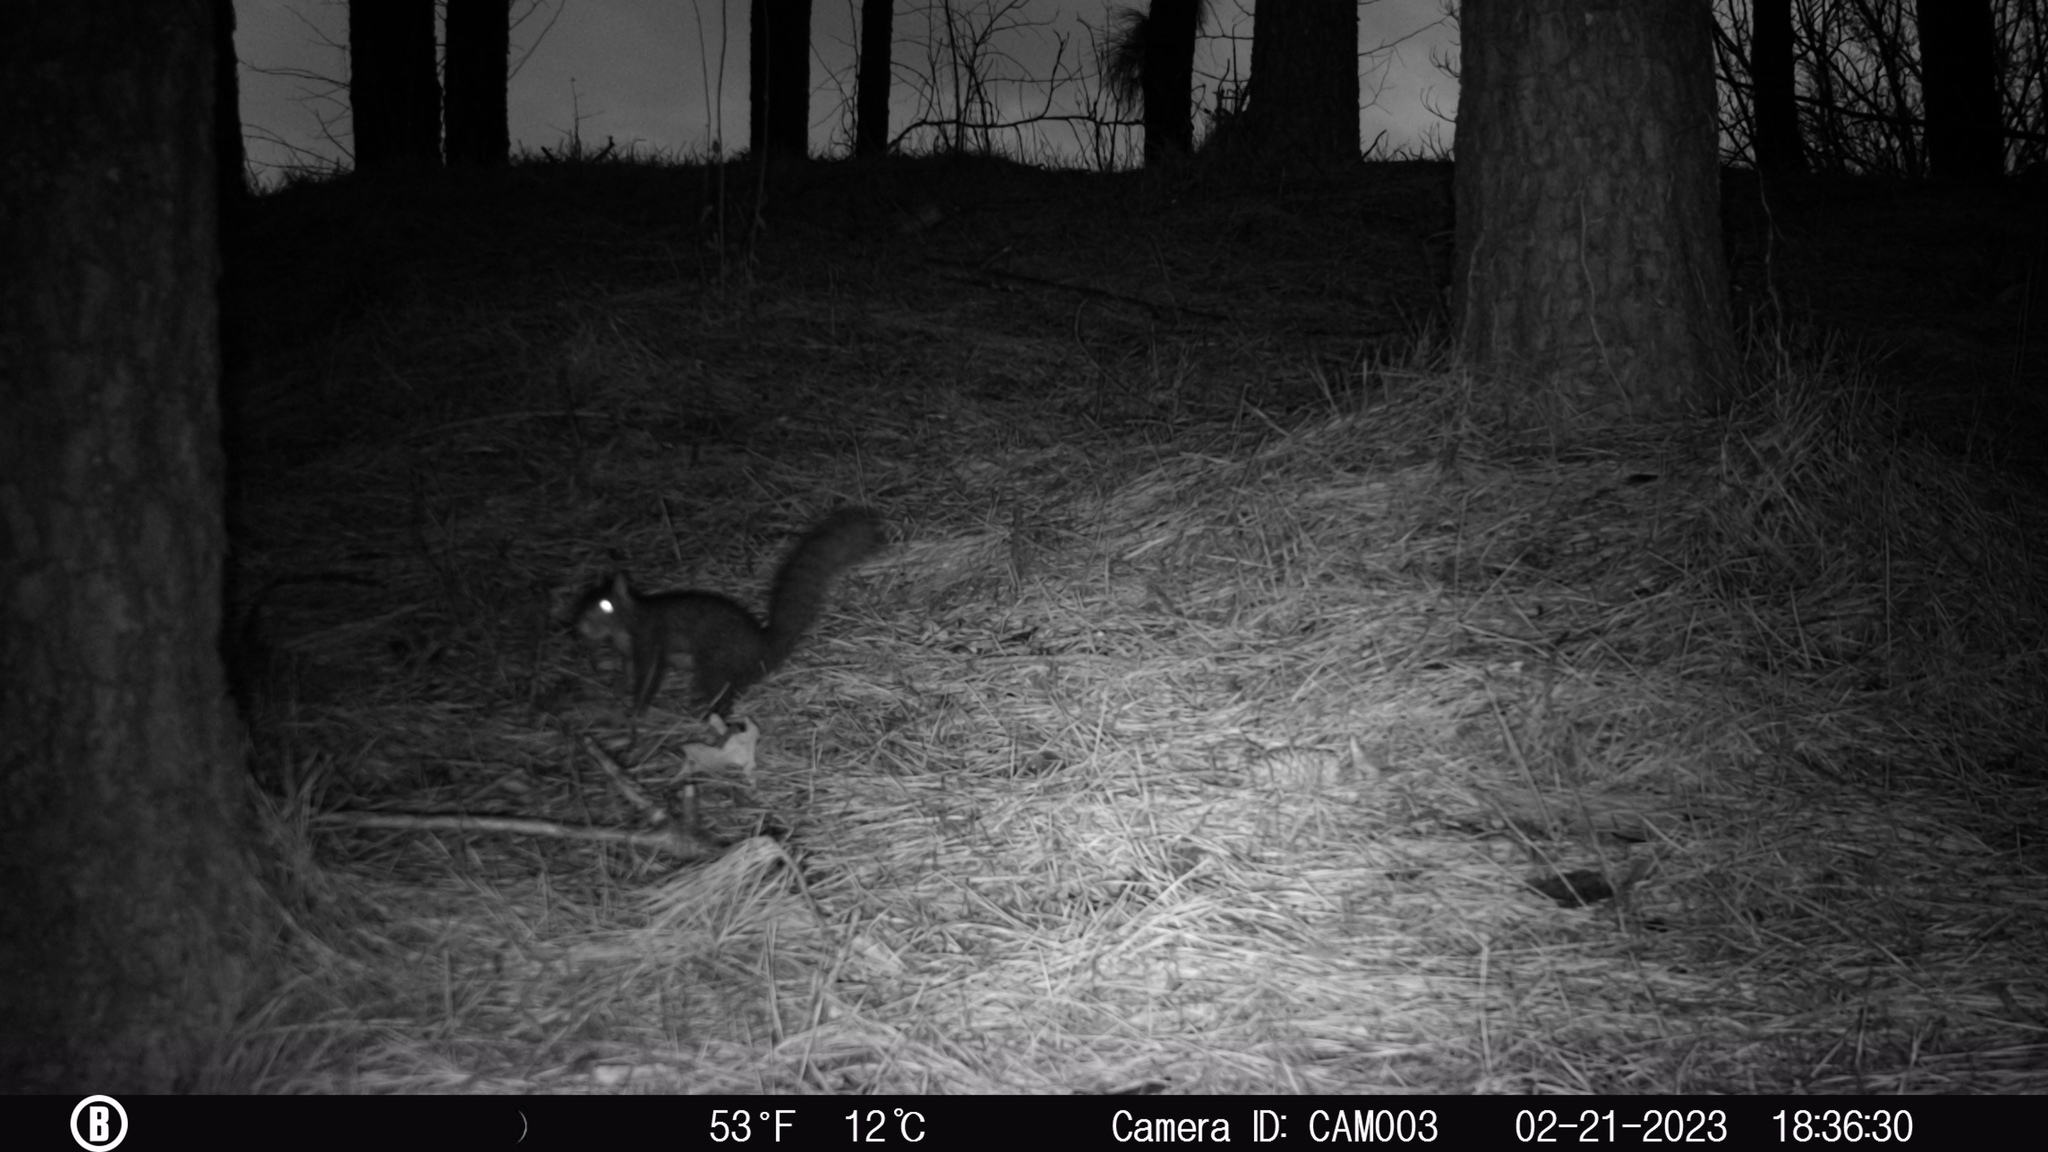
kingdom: Animalia
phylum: Chordata
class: Mammalia
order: Rodentia
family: Sciuridae
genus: Sciurus
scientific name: Sciurus carolinensis
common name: Eastern gray squirrel
